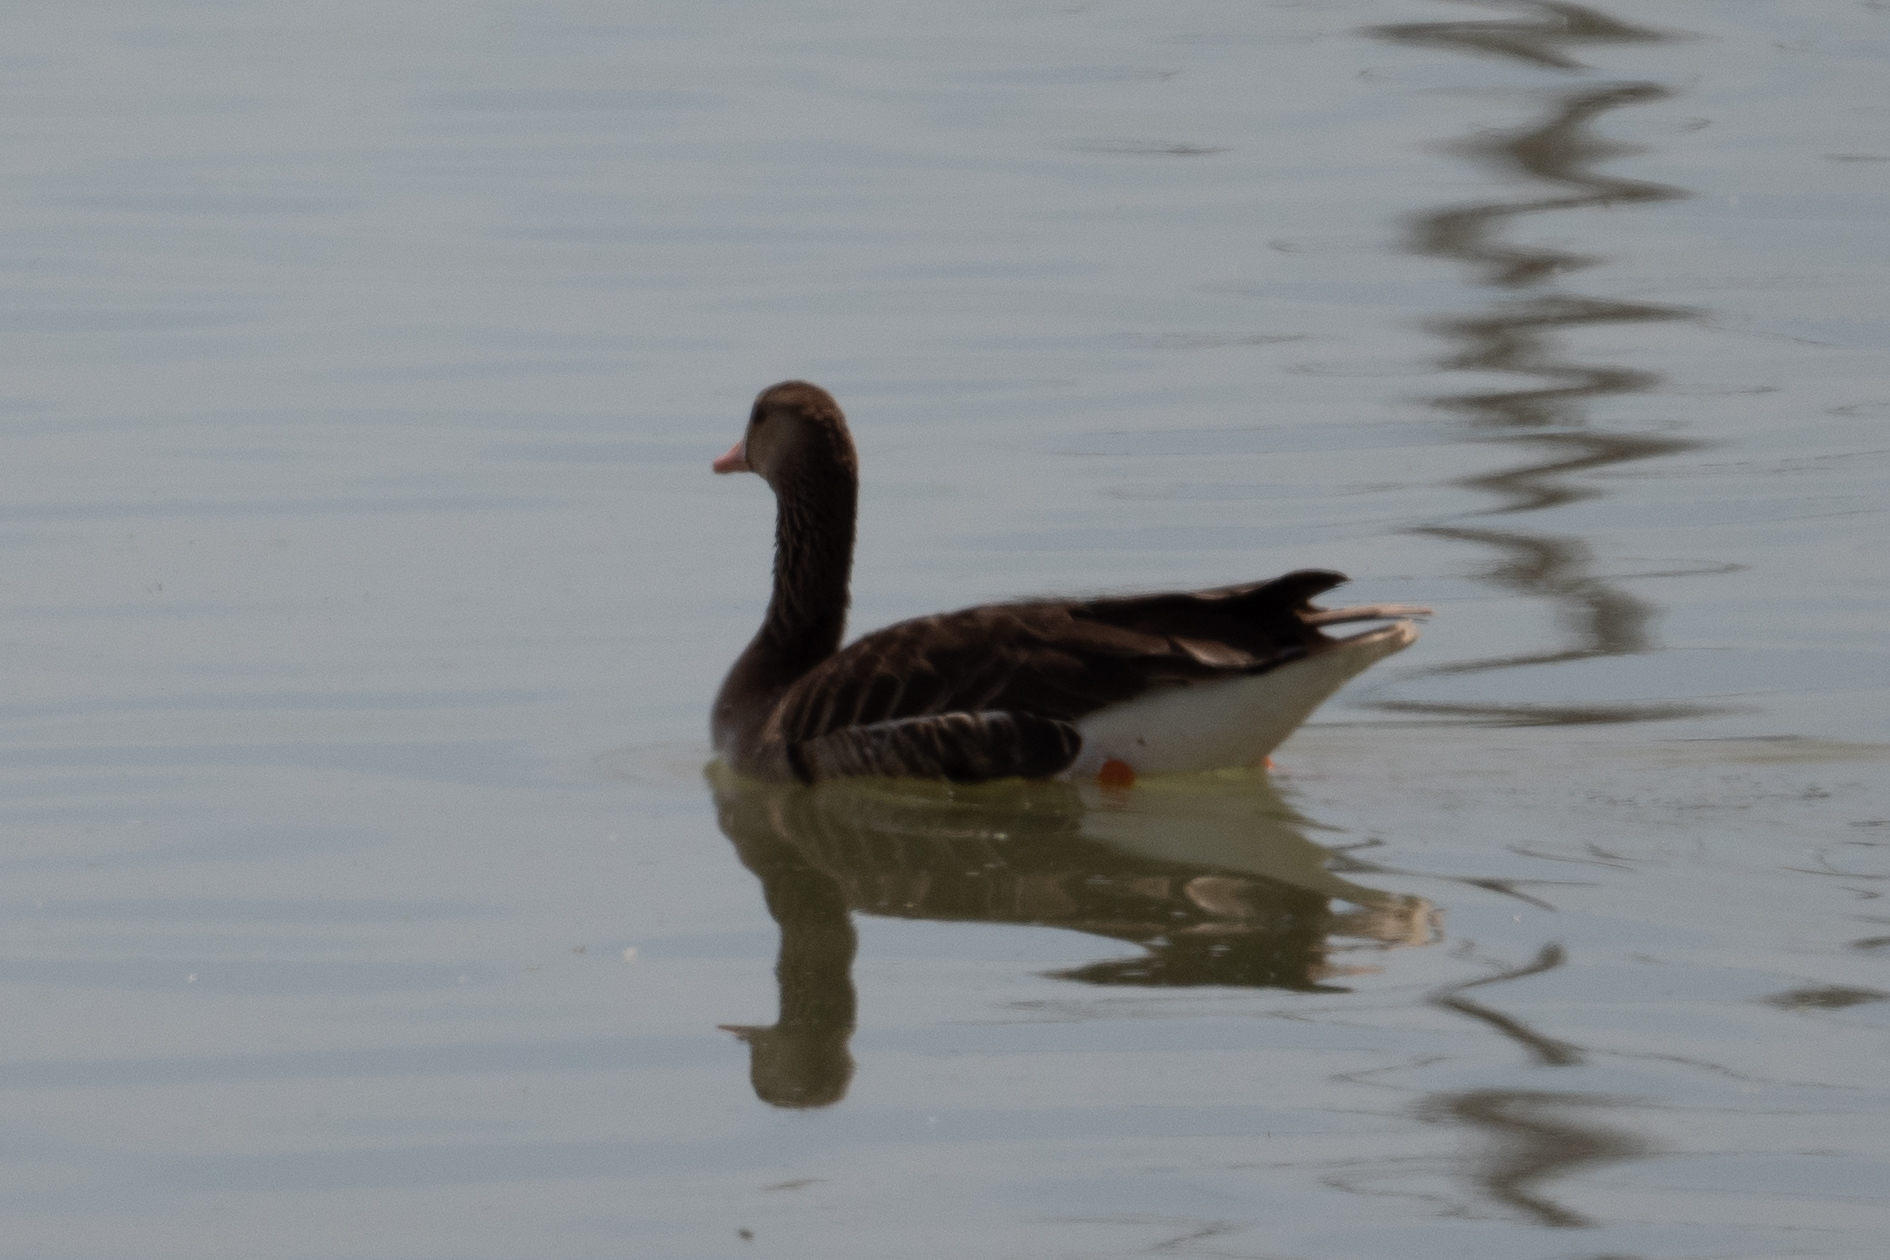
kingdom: Animalia
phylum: Chordata
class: Aves
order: Anseriformes
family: Anatidae
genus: Anser
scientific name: Anser albifrons
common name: Greater white-fronted goose
